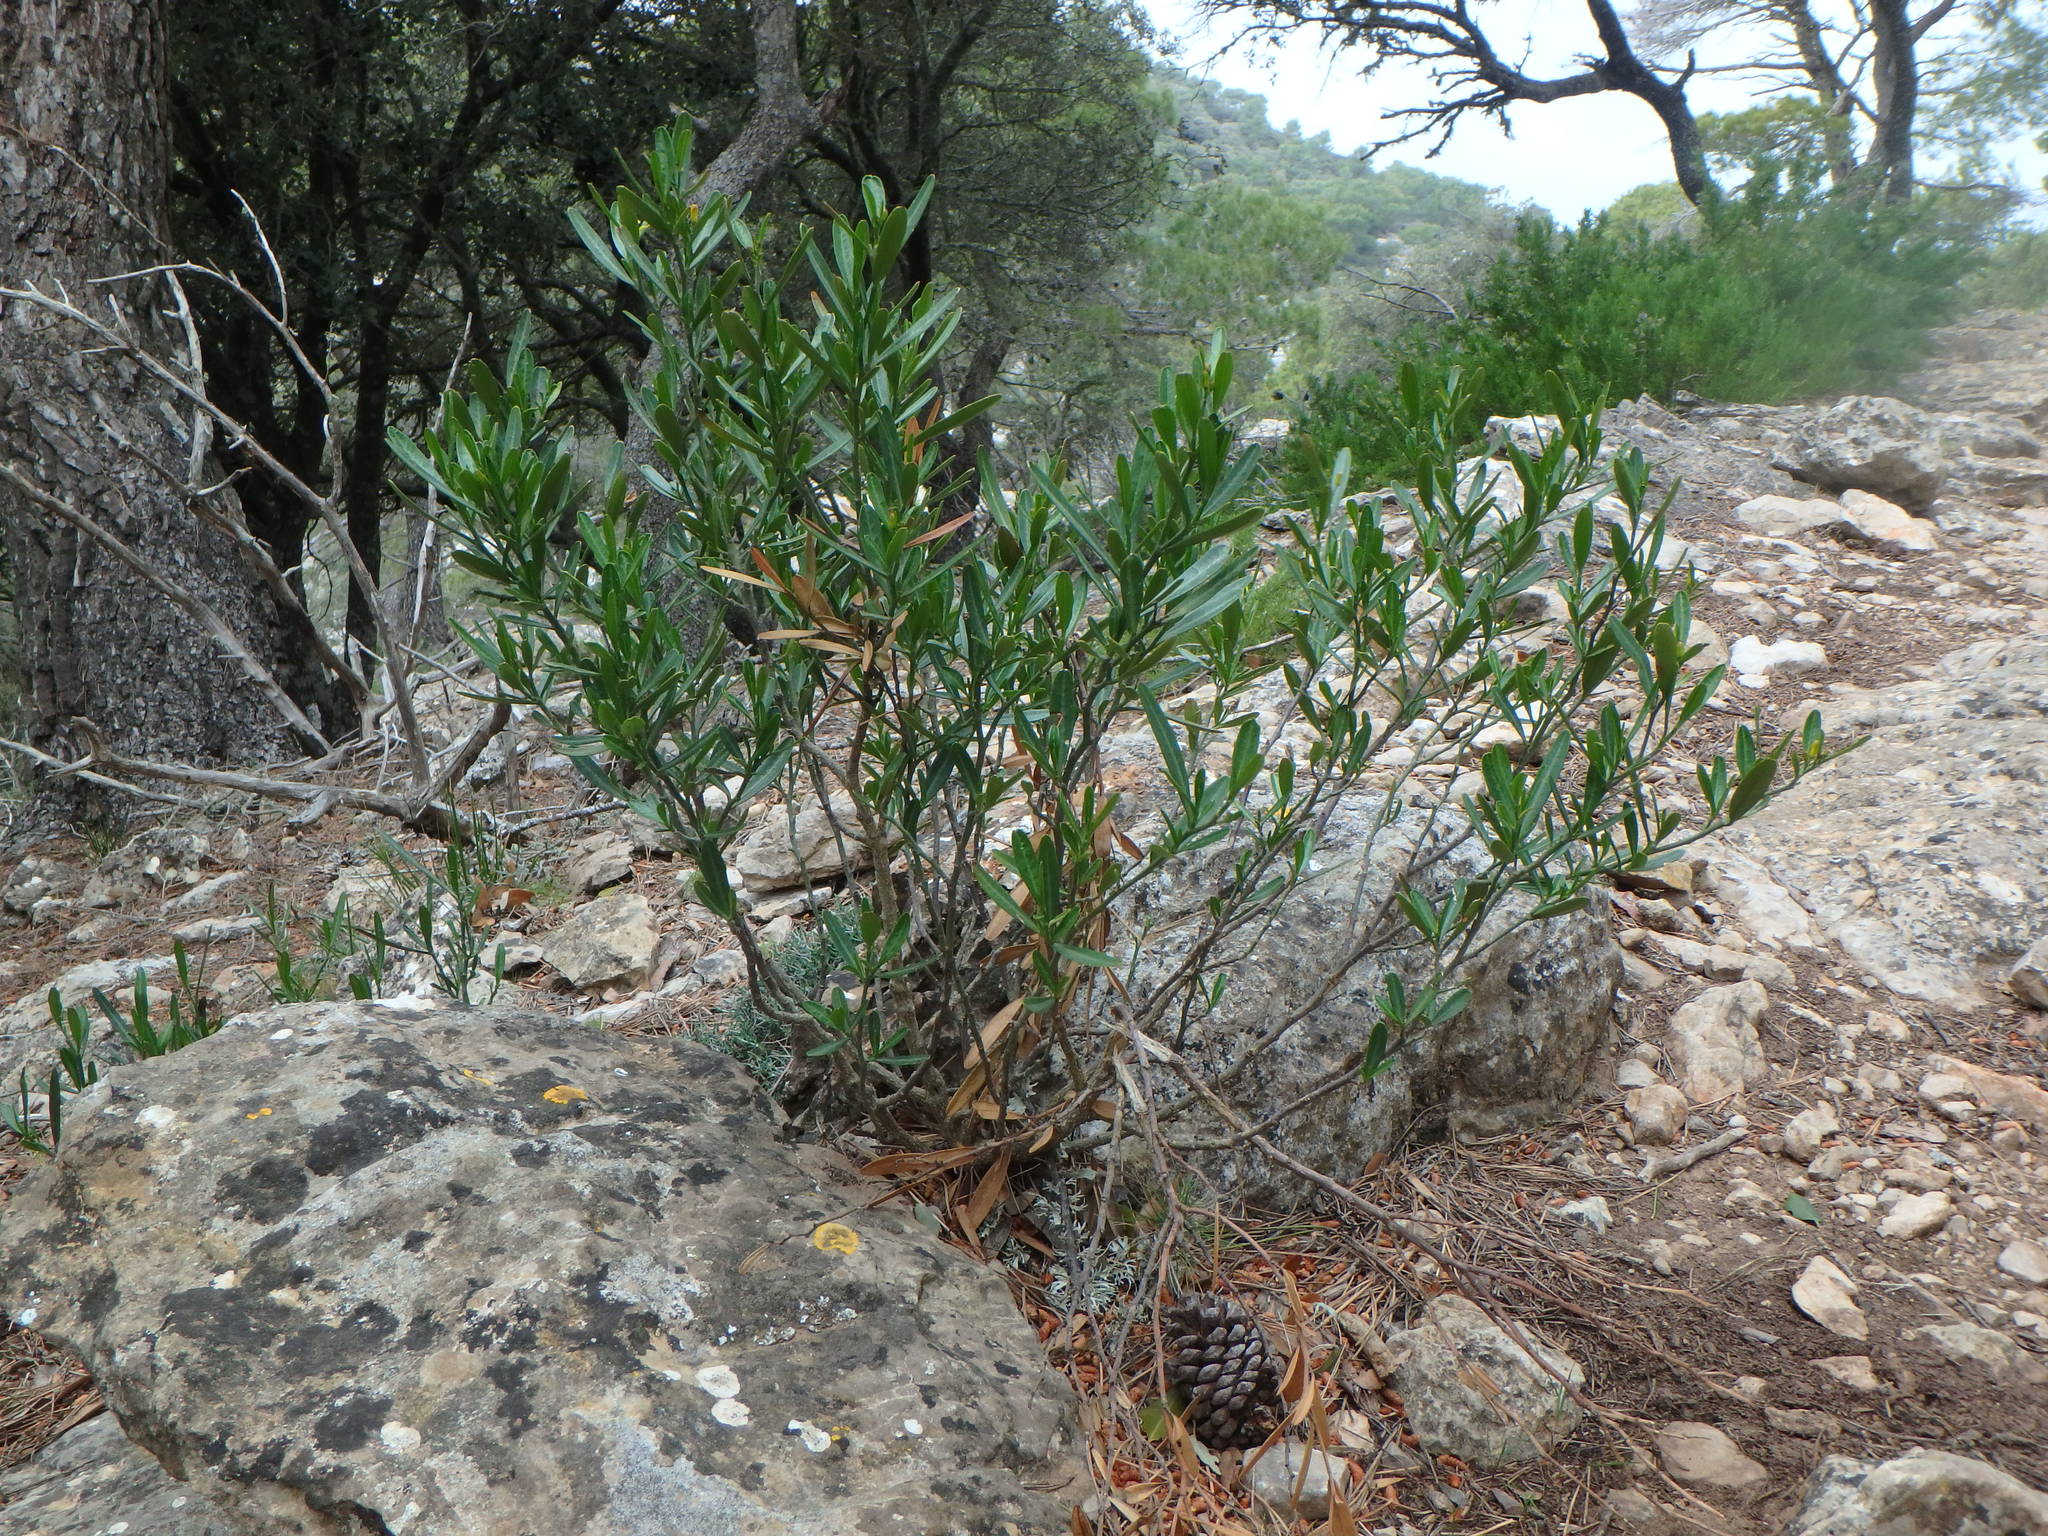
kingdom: Plantae
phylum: Tracheophyta
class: Magnoliopsida
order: Sapindales
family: Rutaceae
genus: Cneorum
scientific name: Cneorum tricoccon
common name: Spurge olive
